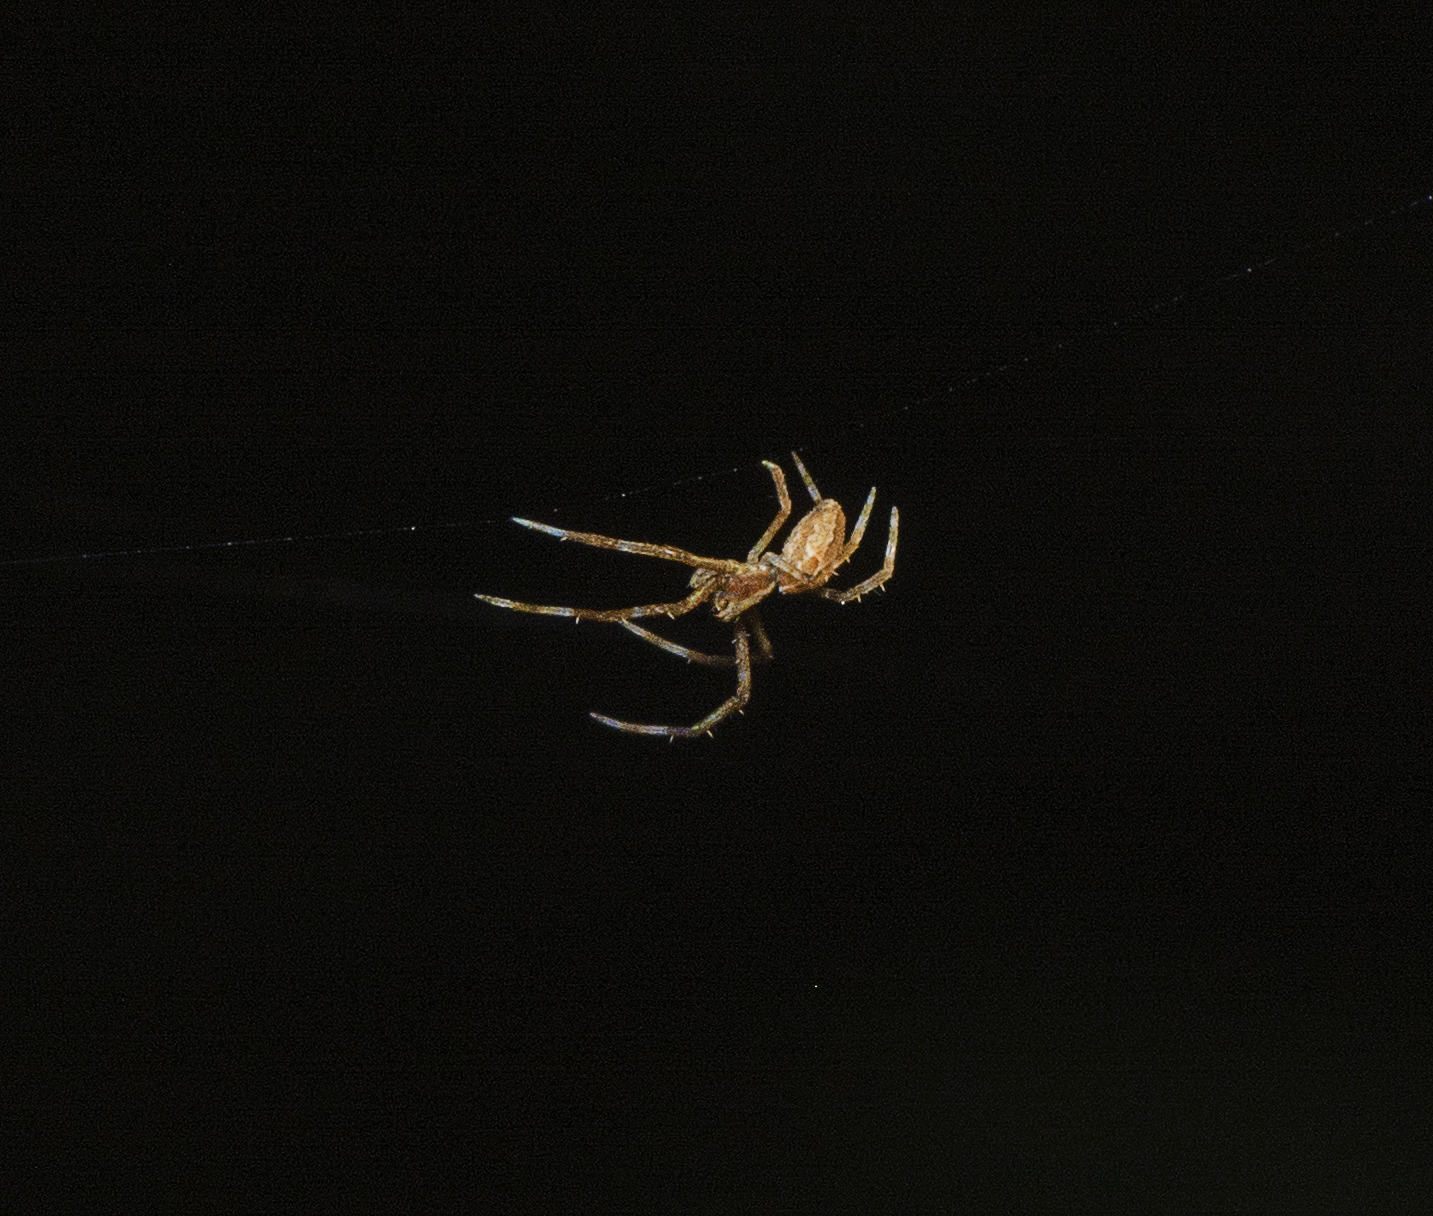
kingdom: Animalia
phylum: Arthropoda
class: Arachnida
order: Araneae
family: Araneidae
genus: Araneus
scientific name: Araneus stolidus
